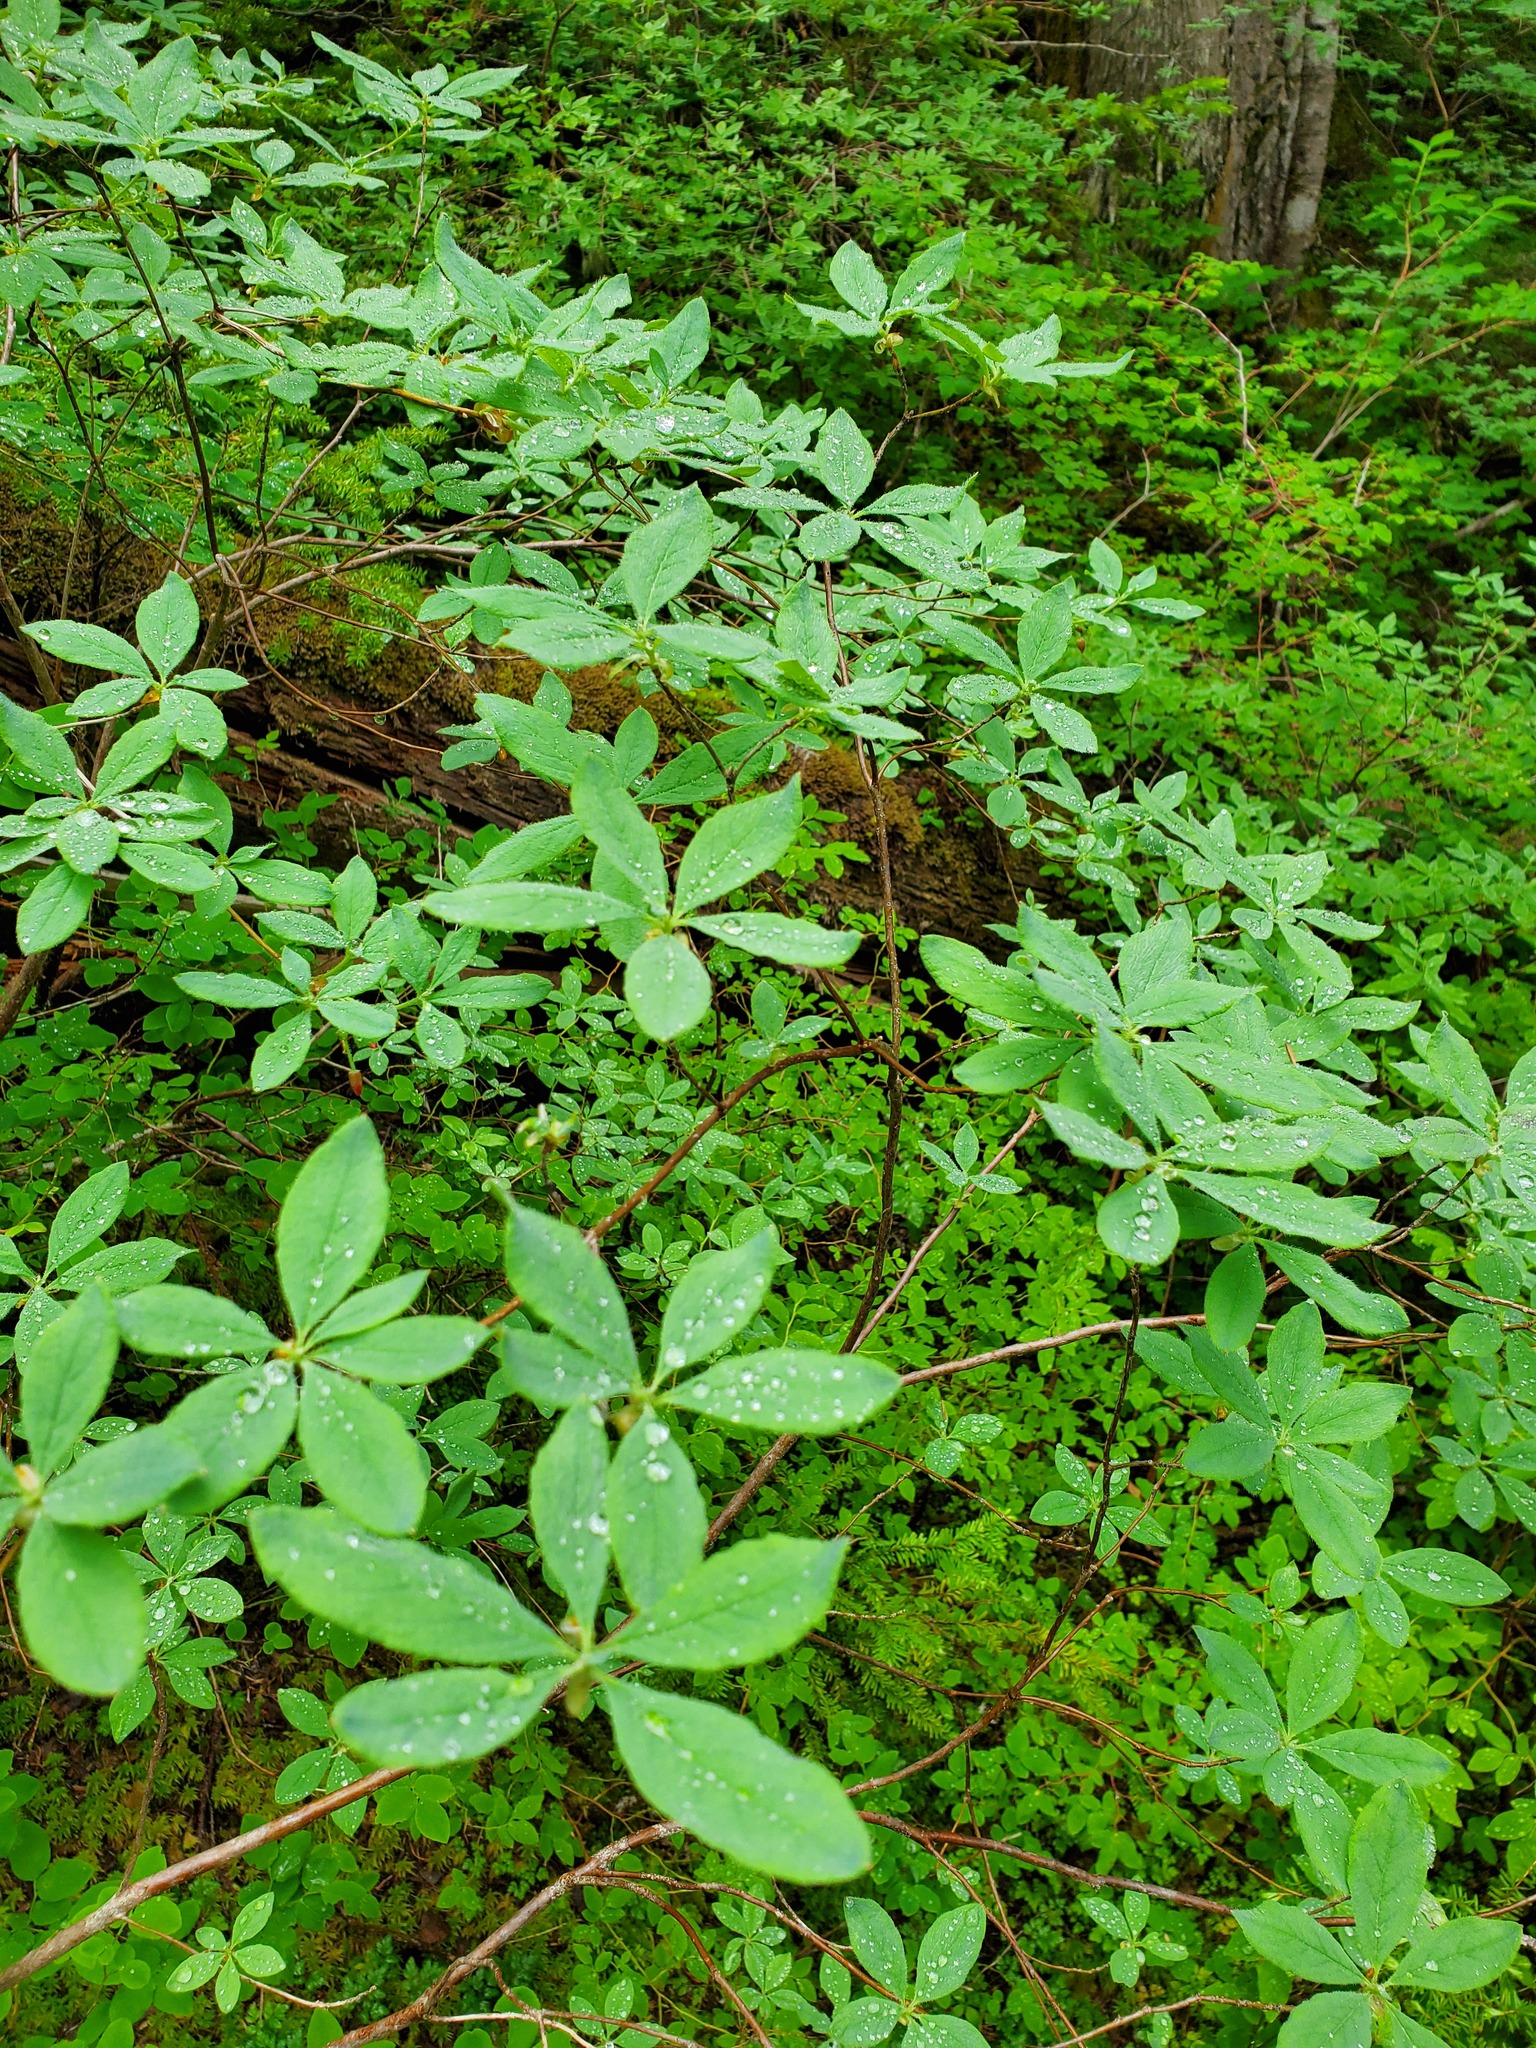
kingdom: Plantae
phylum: Tracheophyta
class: Magnoliopsida
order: Ericales
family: Ericaceae
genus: Rhododendron
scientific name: Rhododendron menziesii
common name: Pacific menziesia
